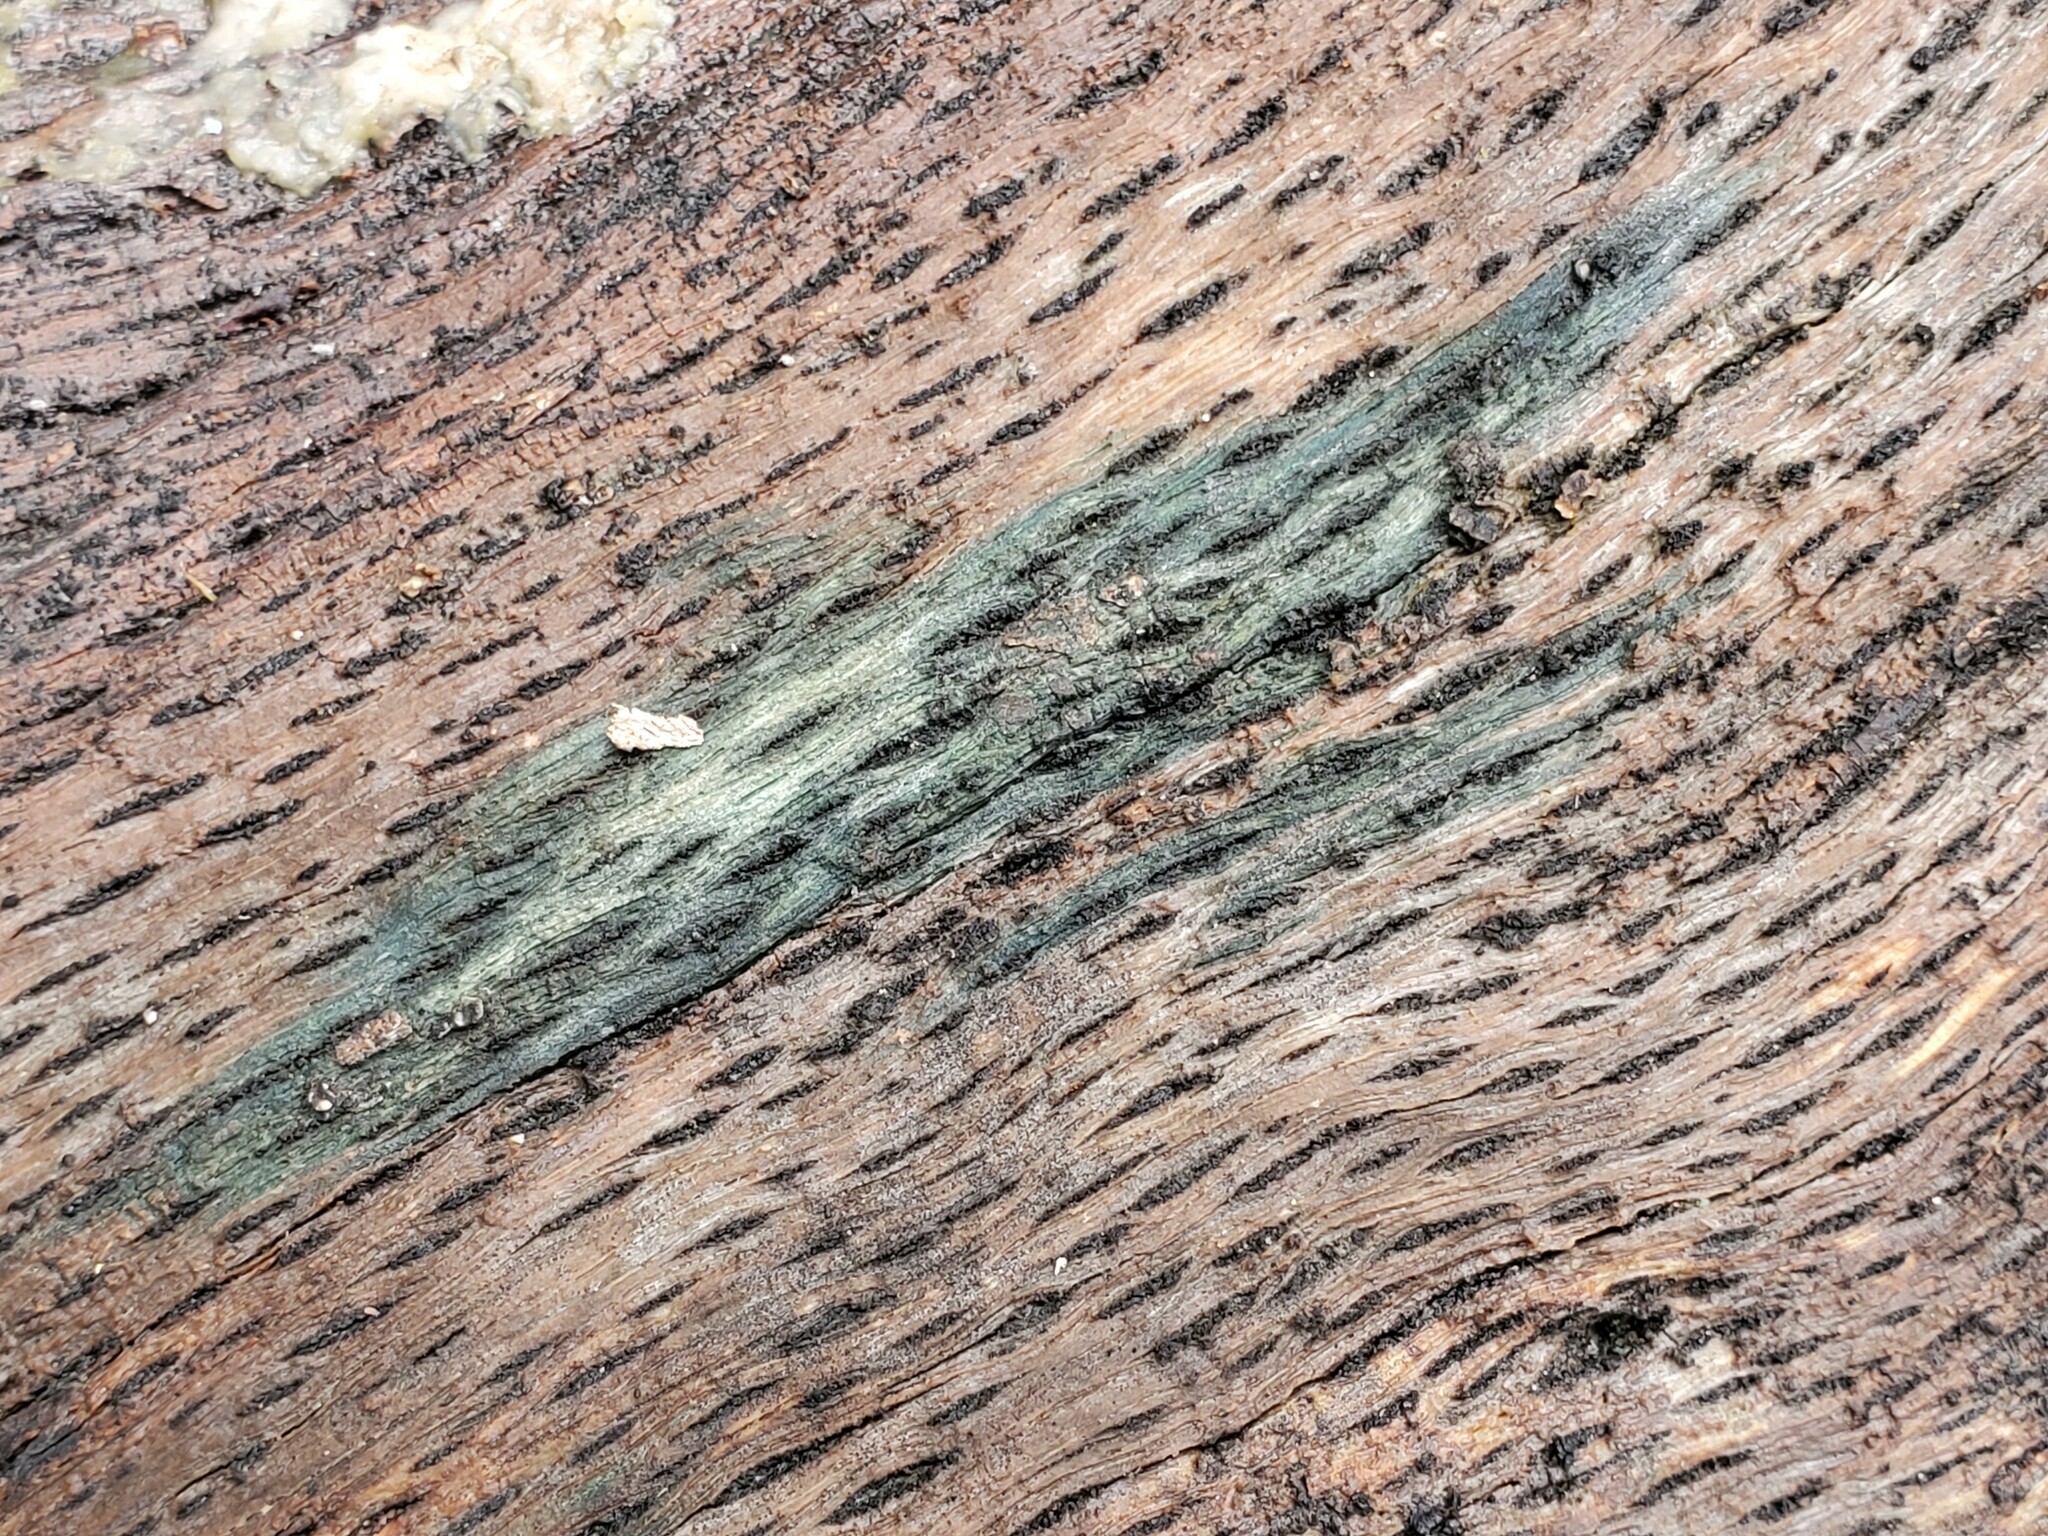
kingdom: Fungi
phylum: Ascomycota
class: Sordariomycetes
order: Hypocreales
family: Hypocreaceae
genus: Trichoderma
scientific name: Trichoderma viride
